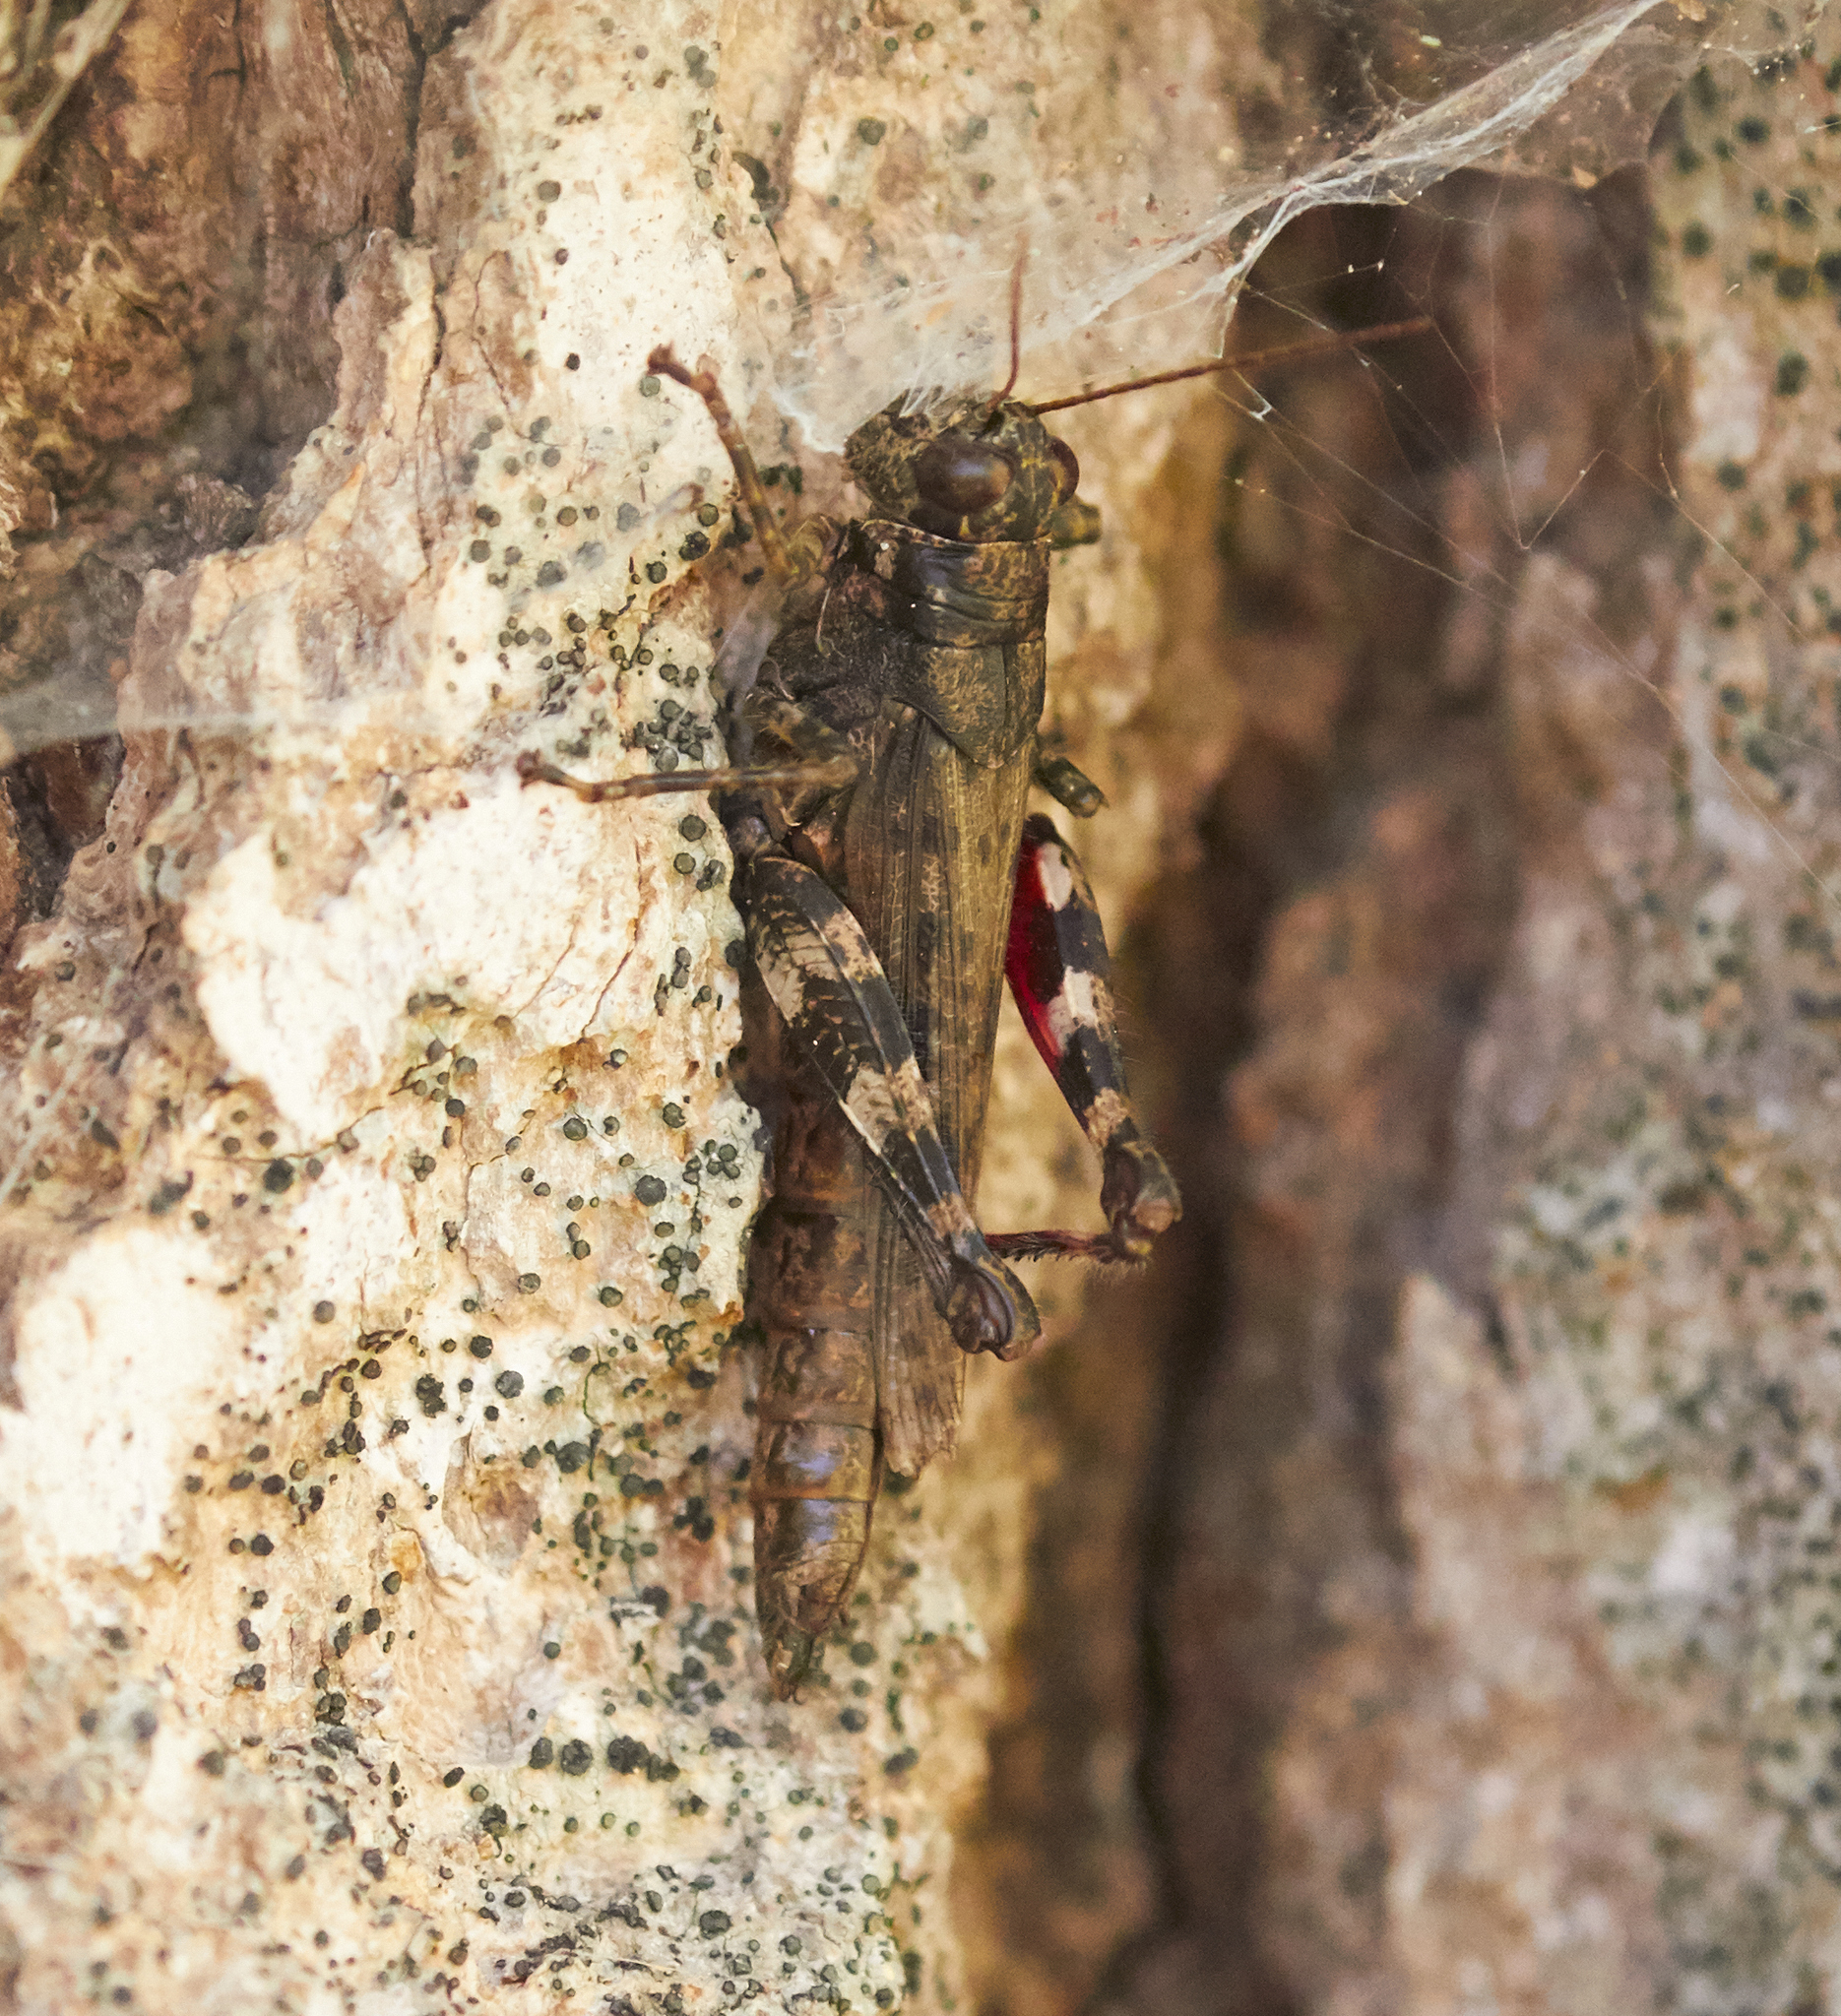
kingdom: Animalia
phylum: Arthropoda
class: Insecta
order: Orthoptera
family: Acrididae
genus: Melanoplus
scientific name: Melanoplus punctulatus
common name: Pine-tree spur-throat grasshopper
